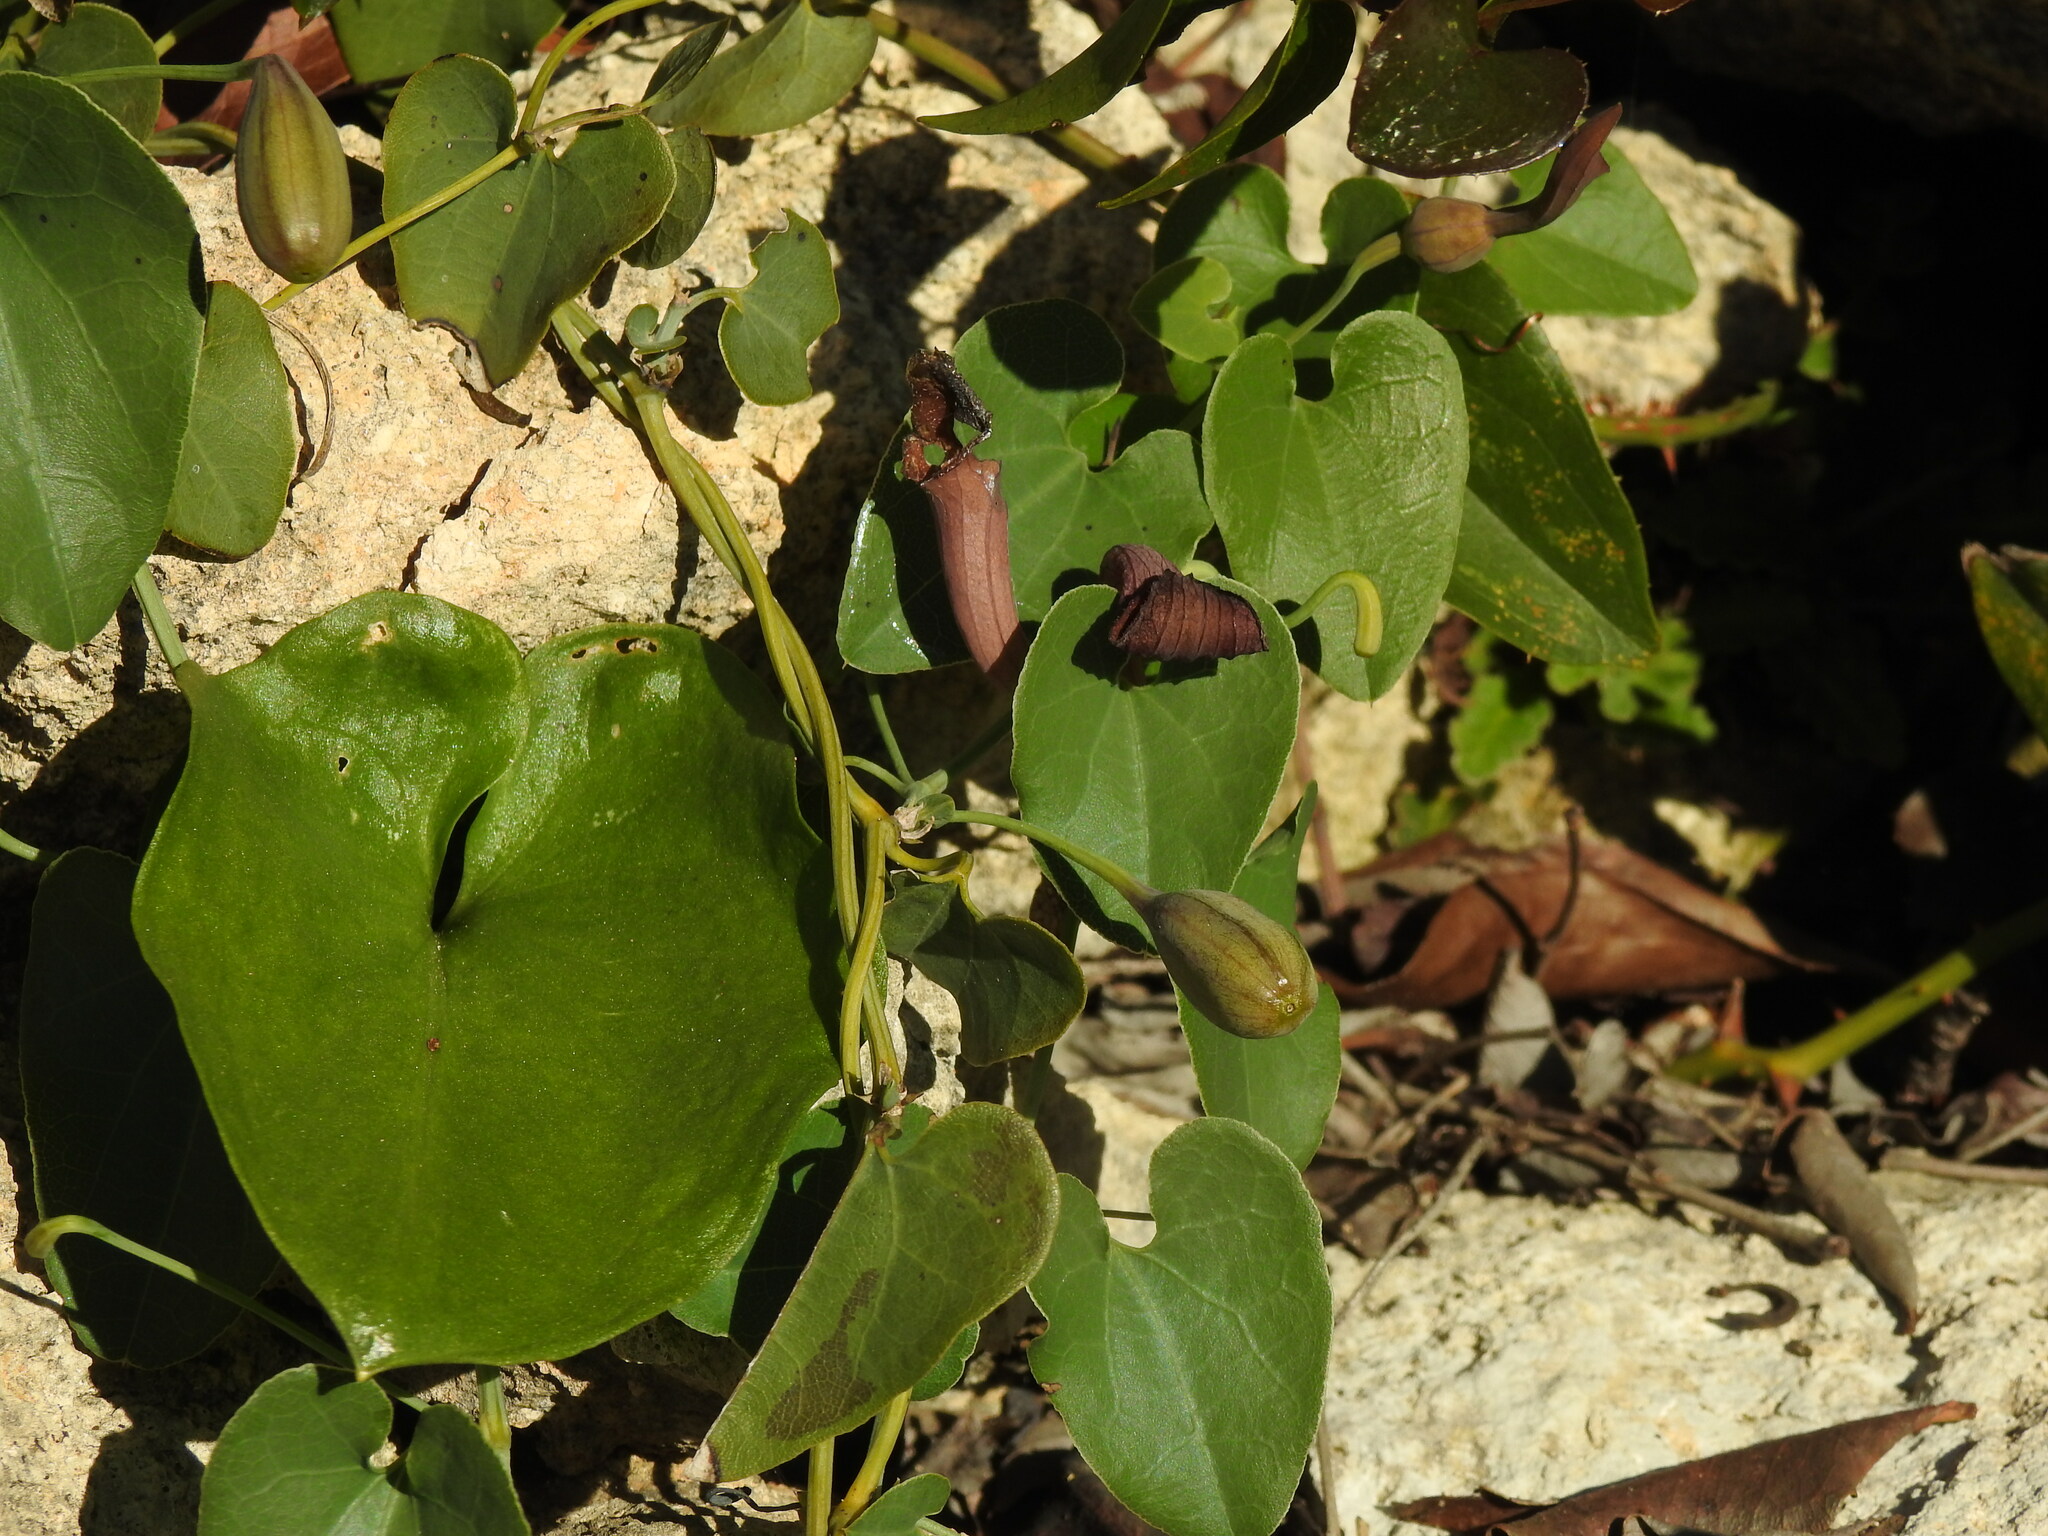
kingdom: Plantae
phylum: Tracheophyta
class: Magnoliopsida
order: Piperales
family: Aristolochiaceae
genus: Aristolochia
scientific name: Aristolochia baetica
